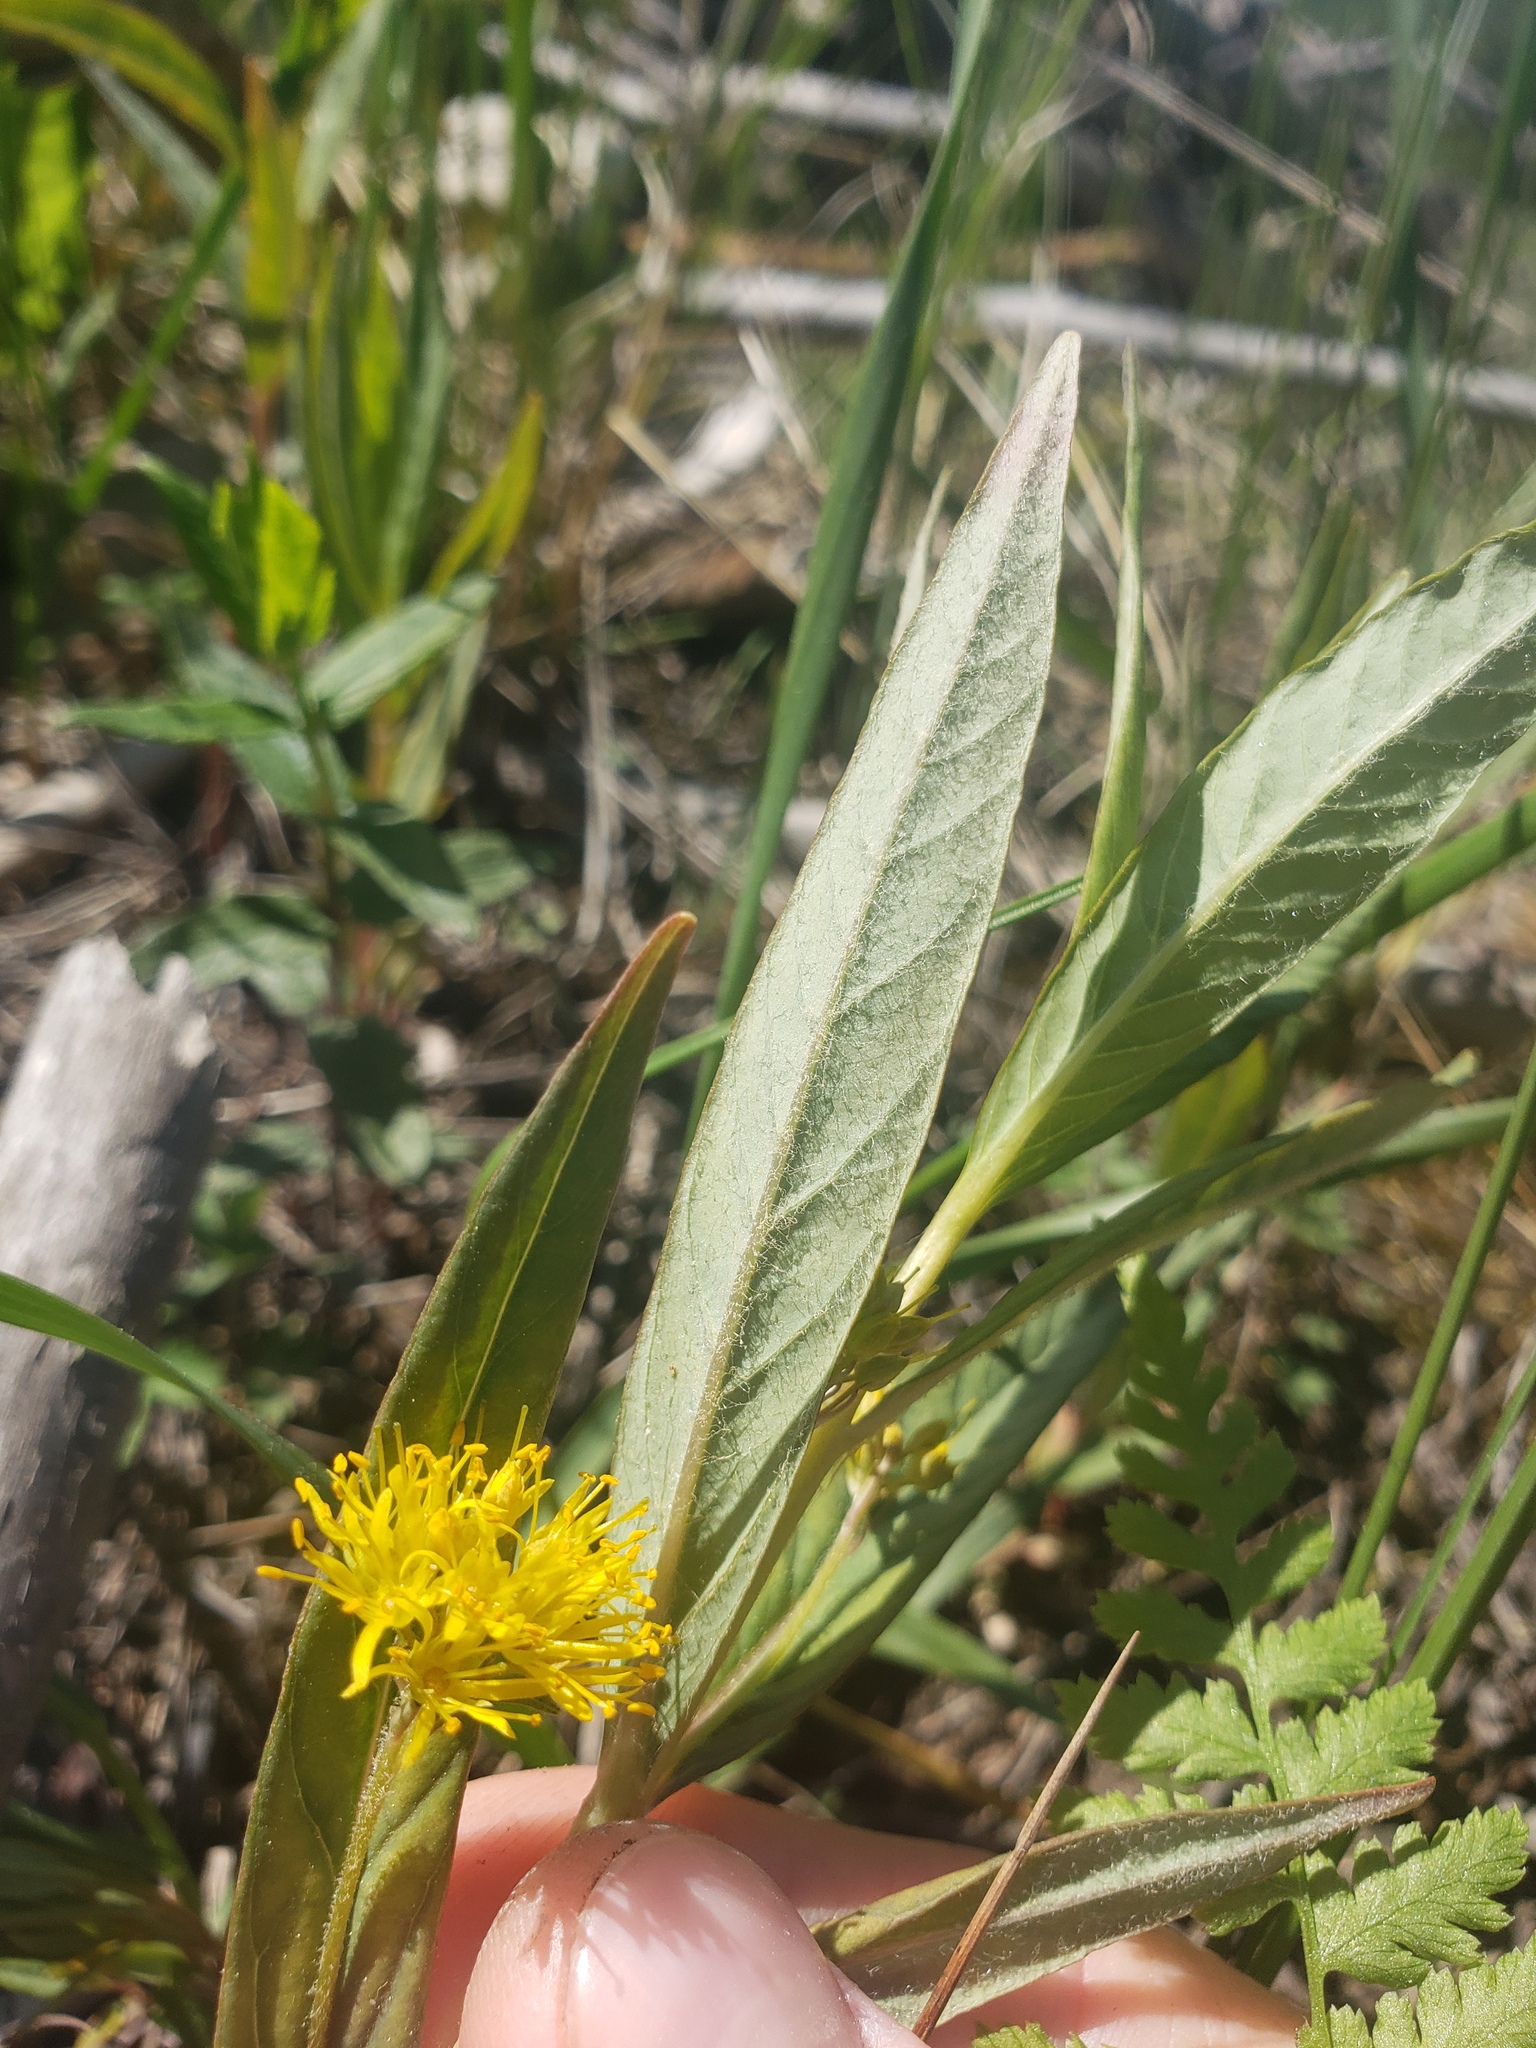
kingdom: Plantae
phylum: Tracheophyta
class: Magnoliopsida
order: Ericales
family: Primulaceae
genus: Lysimachia
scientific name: Lysimachia thyrsiflora
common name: Tufted loosestrife
